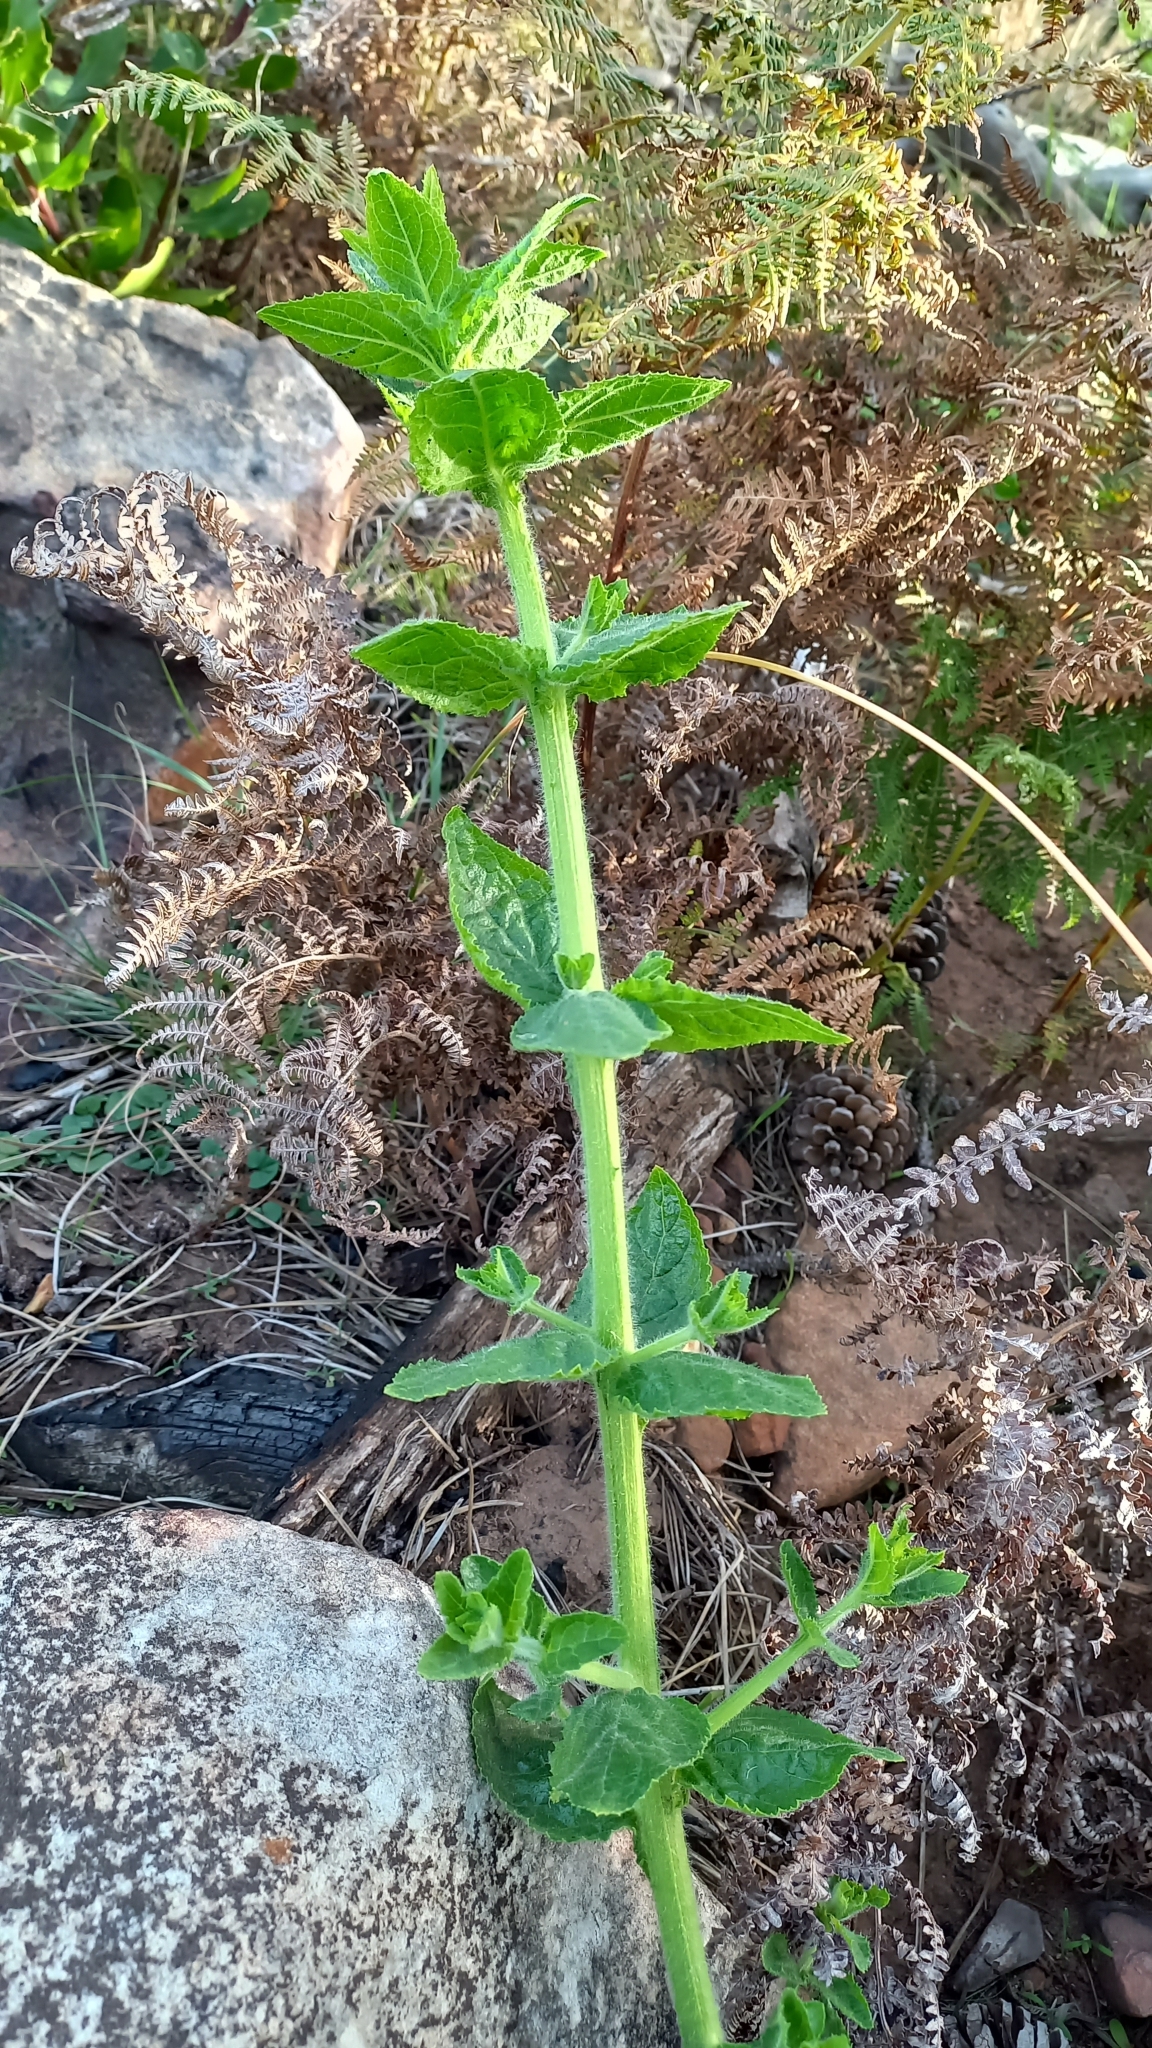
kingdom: Plantae
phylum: Tracheophyta
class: Magnoliopsida
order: Lamiales
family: Scrophulariaceae
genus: Oftia
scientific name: Oftia africana
